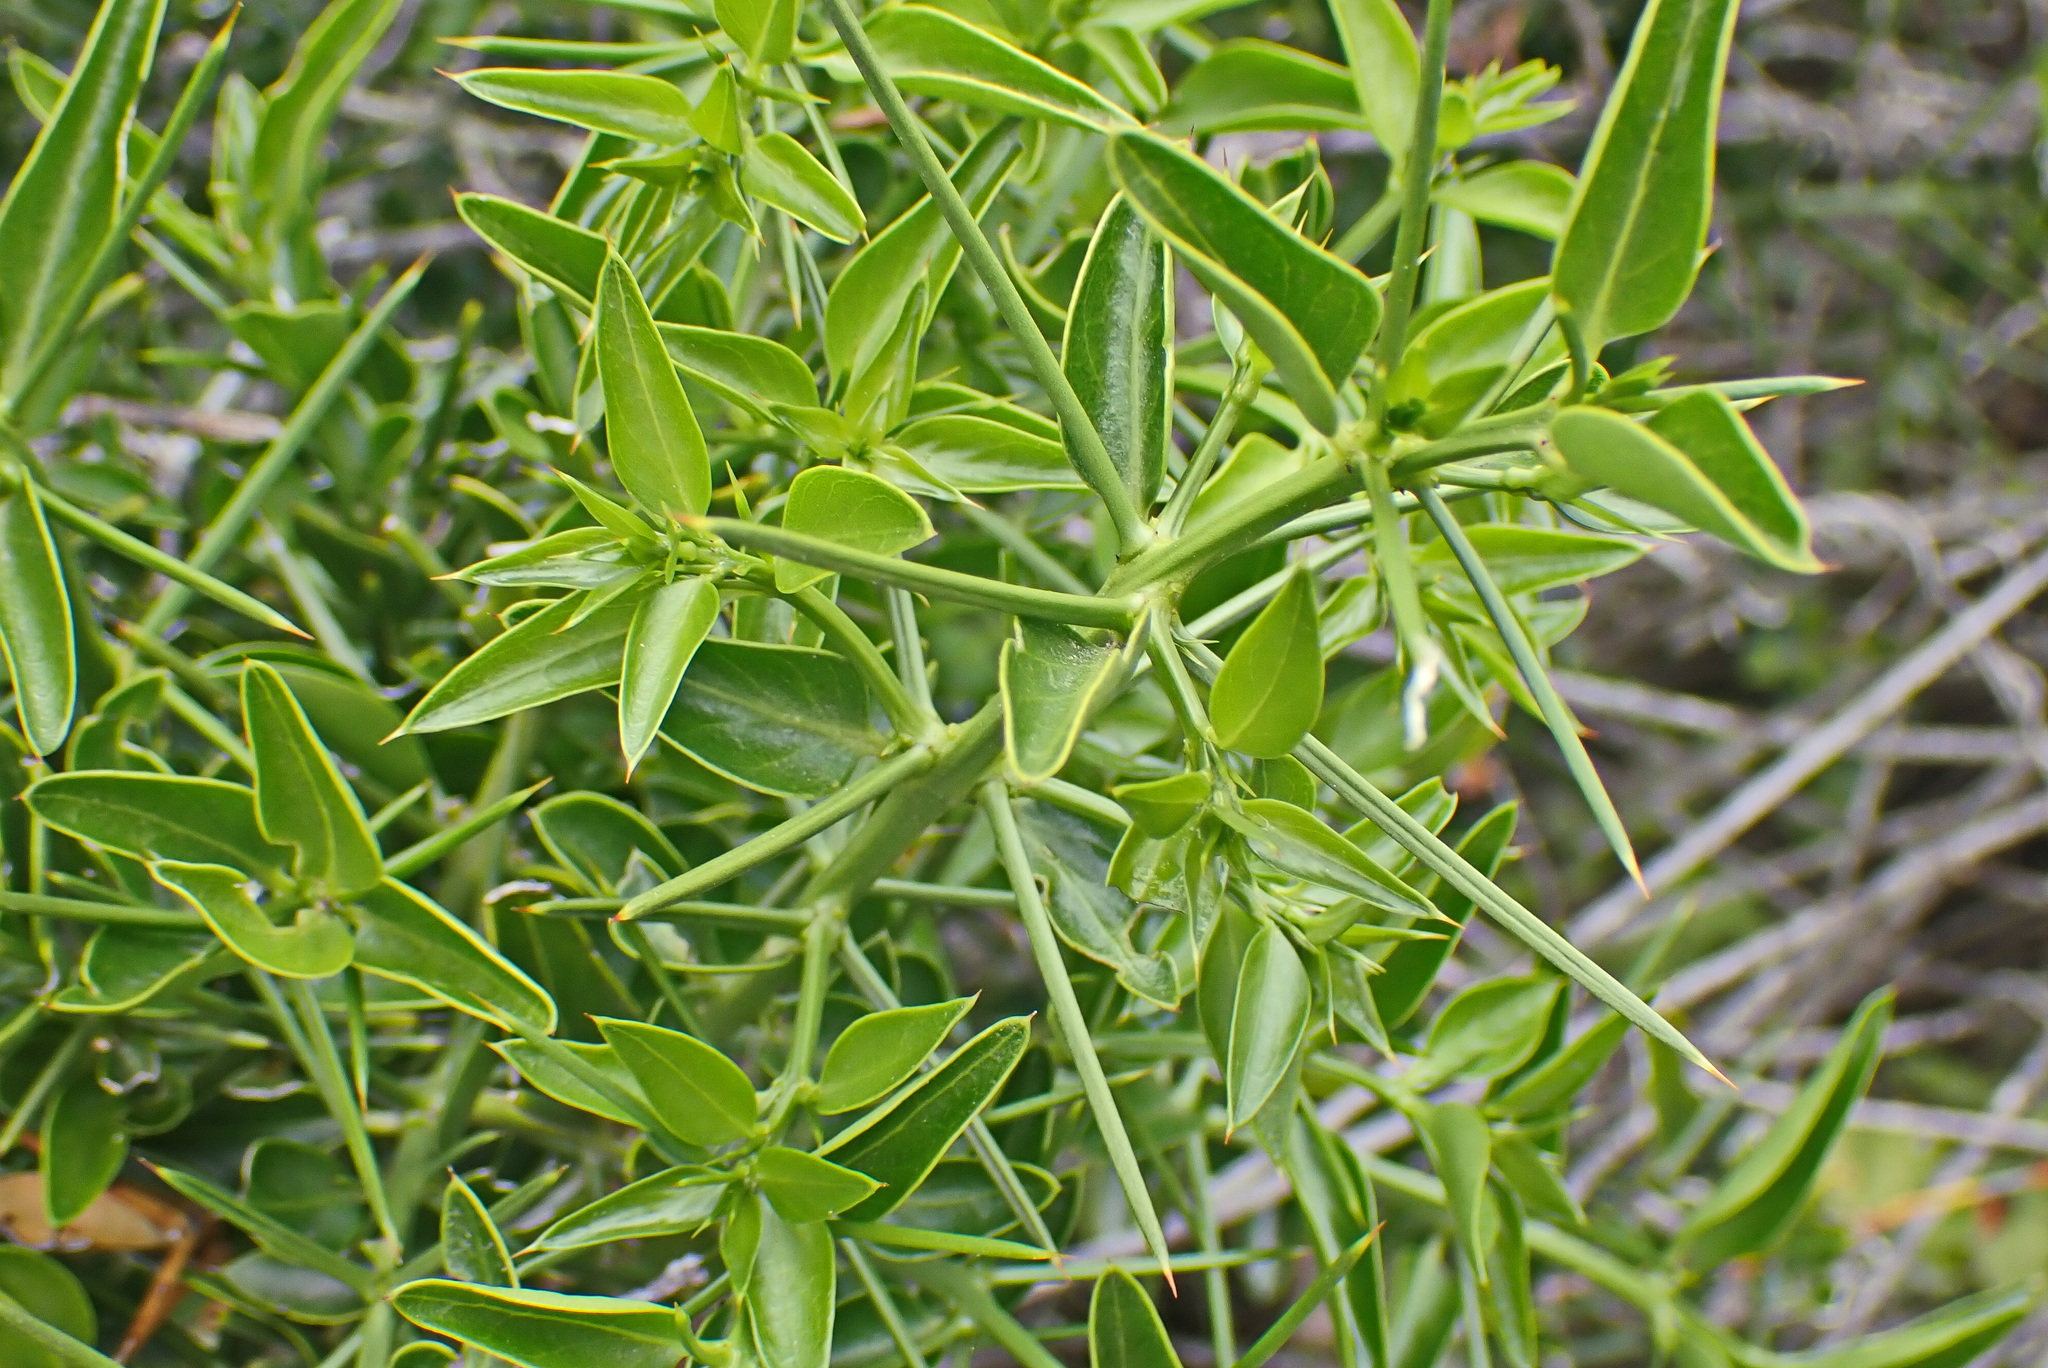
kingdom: Plantae
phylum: Tracheophyta
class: Magnoliopsida
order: Brassicales
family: Salvadoraceae
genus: Azima
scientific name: Azima tetracantha
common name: Needle bush
